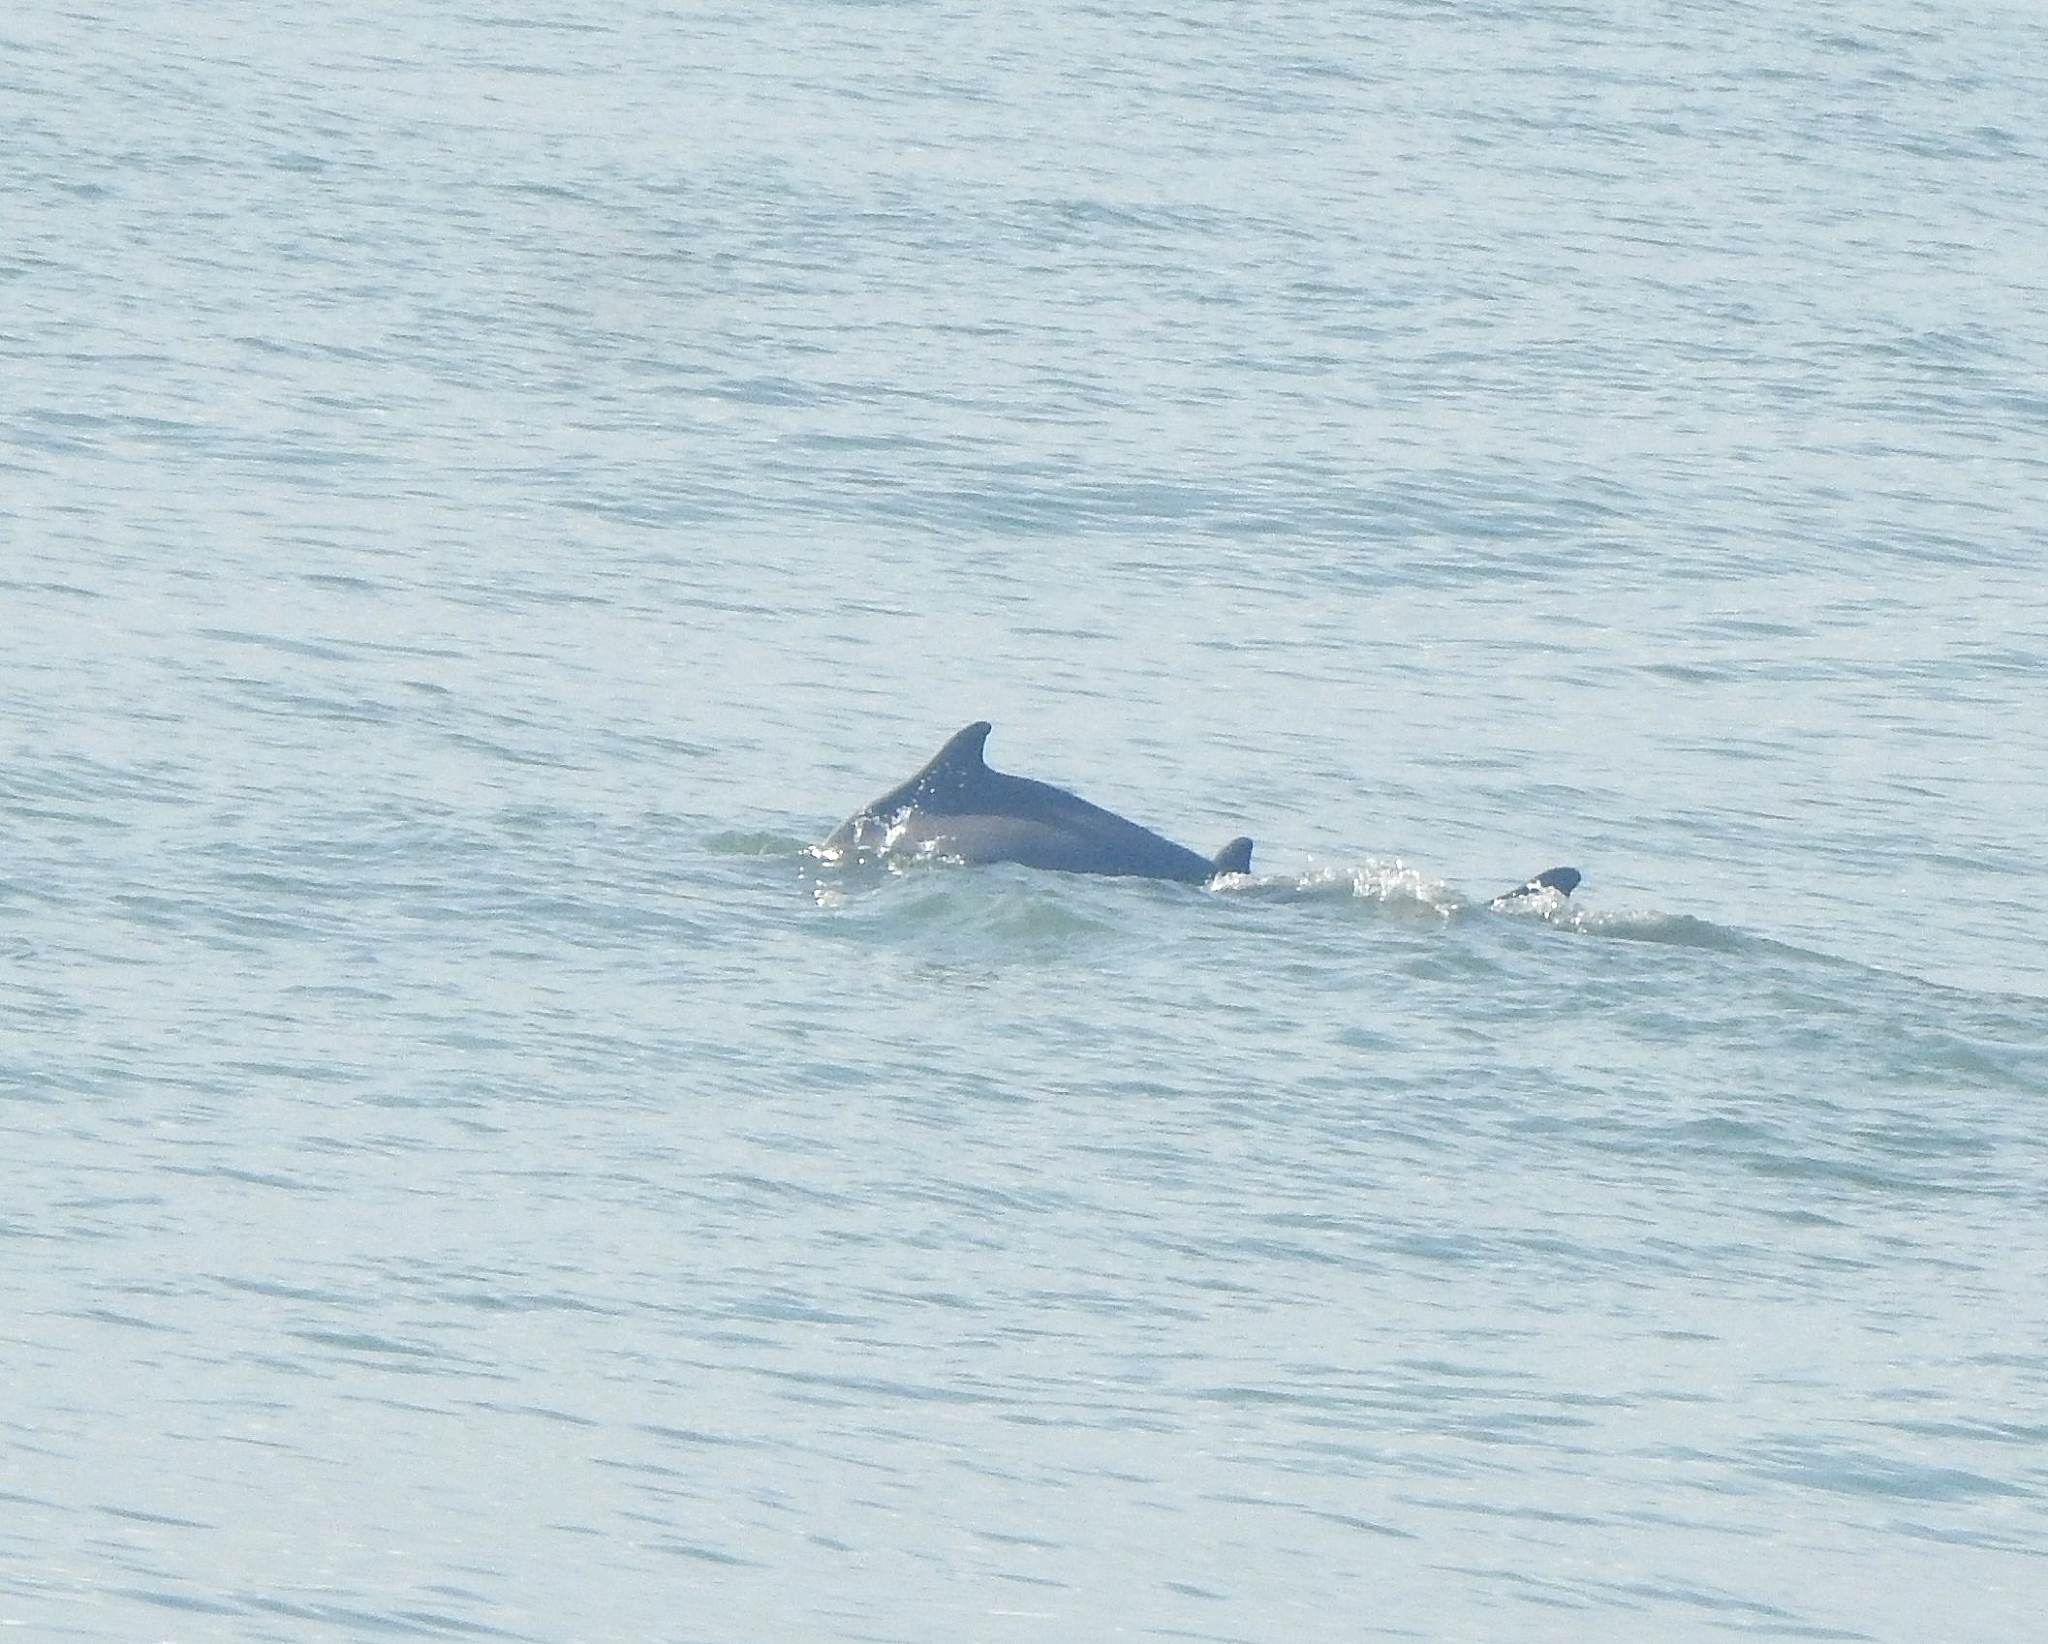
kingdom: Animalia
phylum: Chordata
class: Mammalia
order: Cetacea
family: Delphinidae
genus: Sousa
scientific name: Sousa plumbea
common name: Indian ocean humpback dolphin
